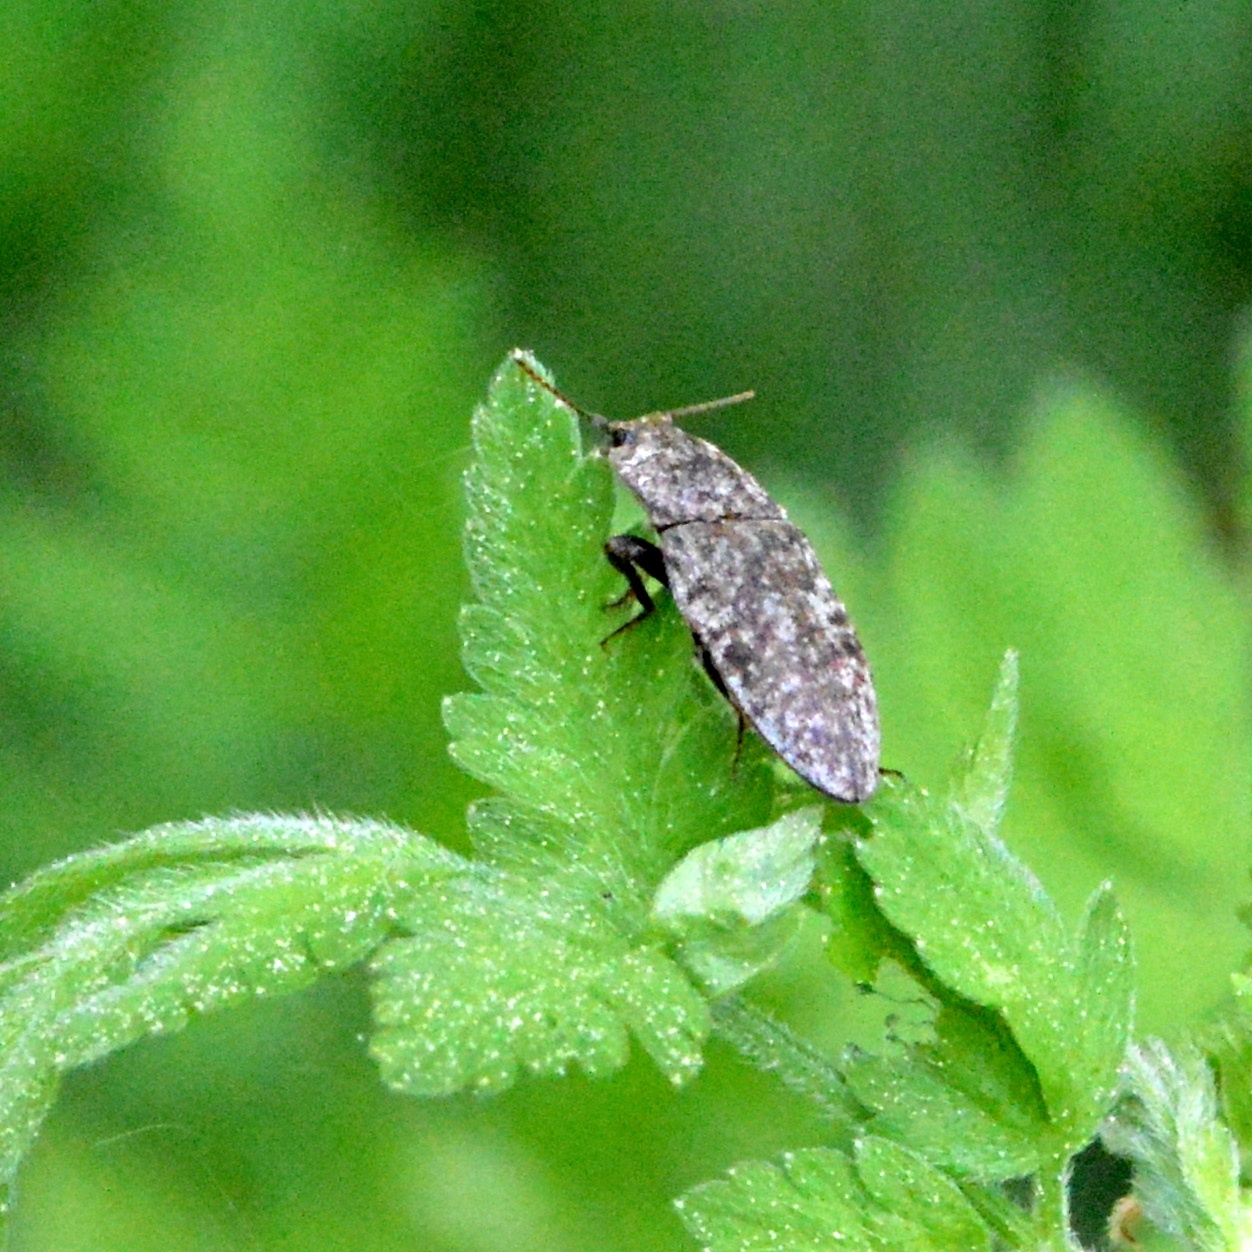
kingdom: Animalia
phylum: Arthropoda
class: Insecta
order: Coleoptera
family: Elateridae
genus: Agrypnus
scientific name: Agrypnus murinus
